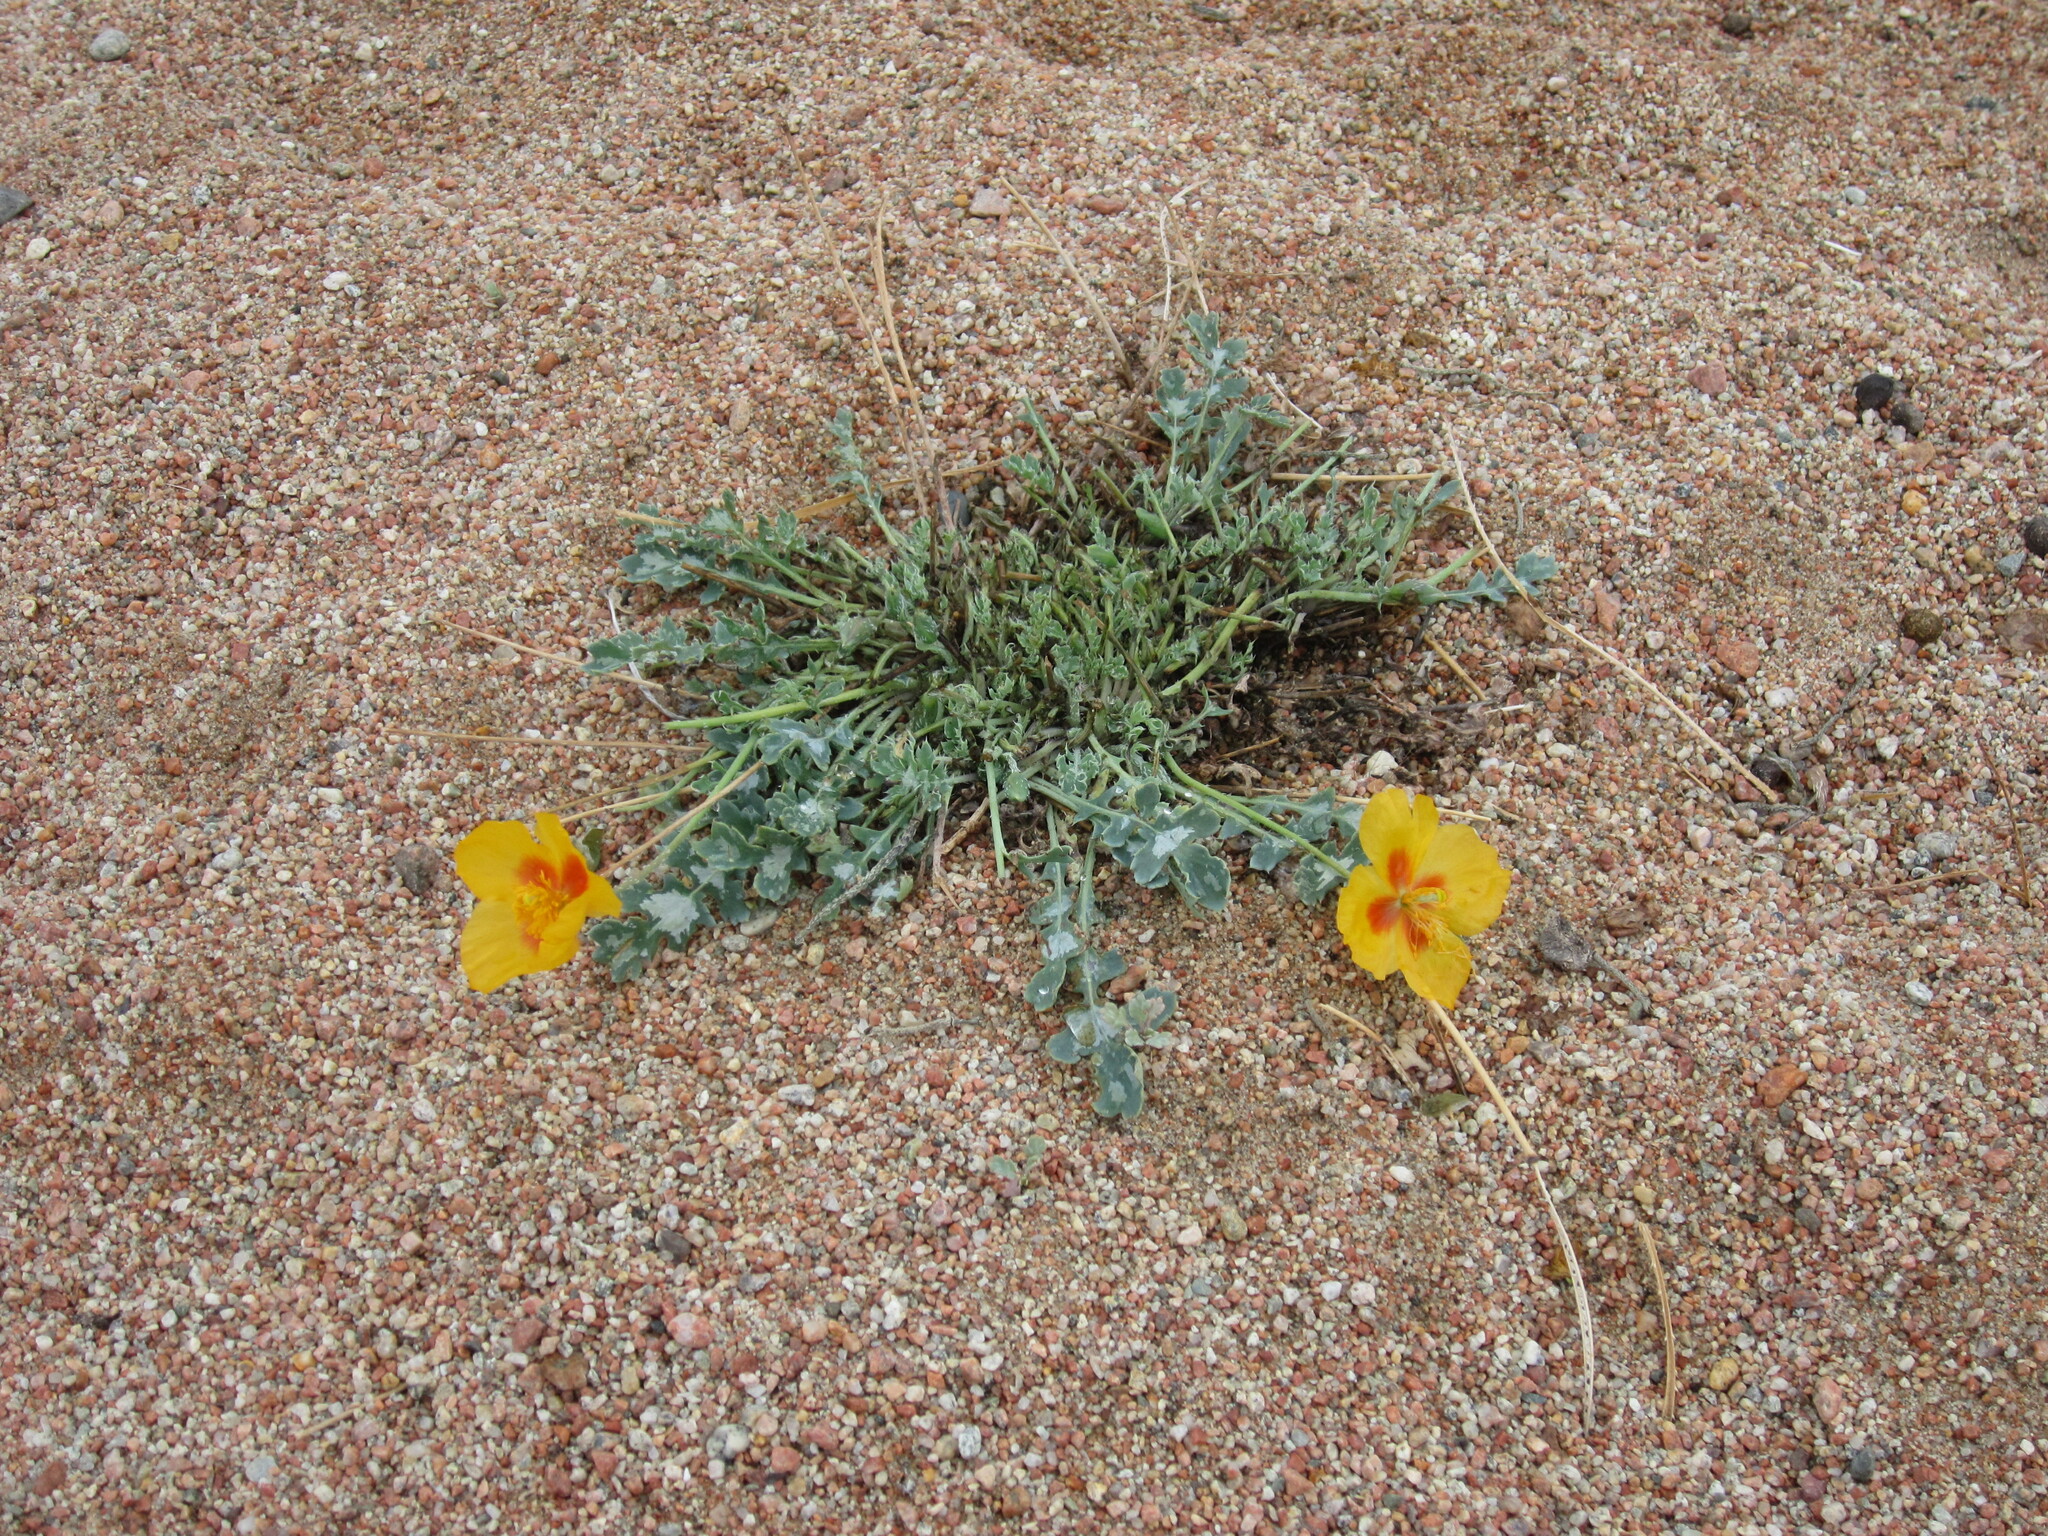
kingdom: Plantae
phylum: Tracheophyta
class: Magnoliopsida
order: Ranunculales
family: Papaveraceae
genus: Glaucium
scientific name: Glaucium squamigerum
